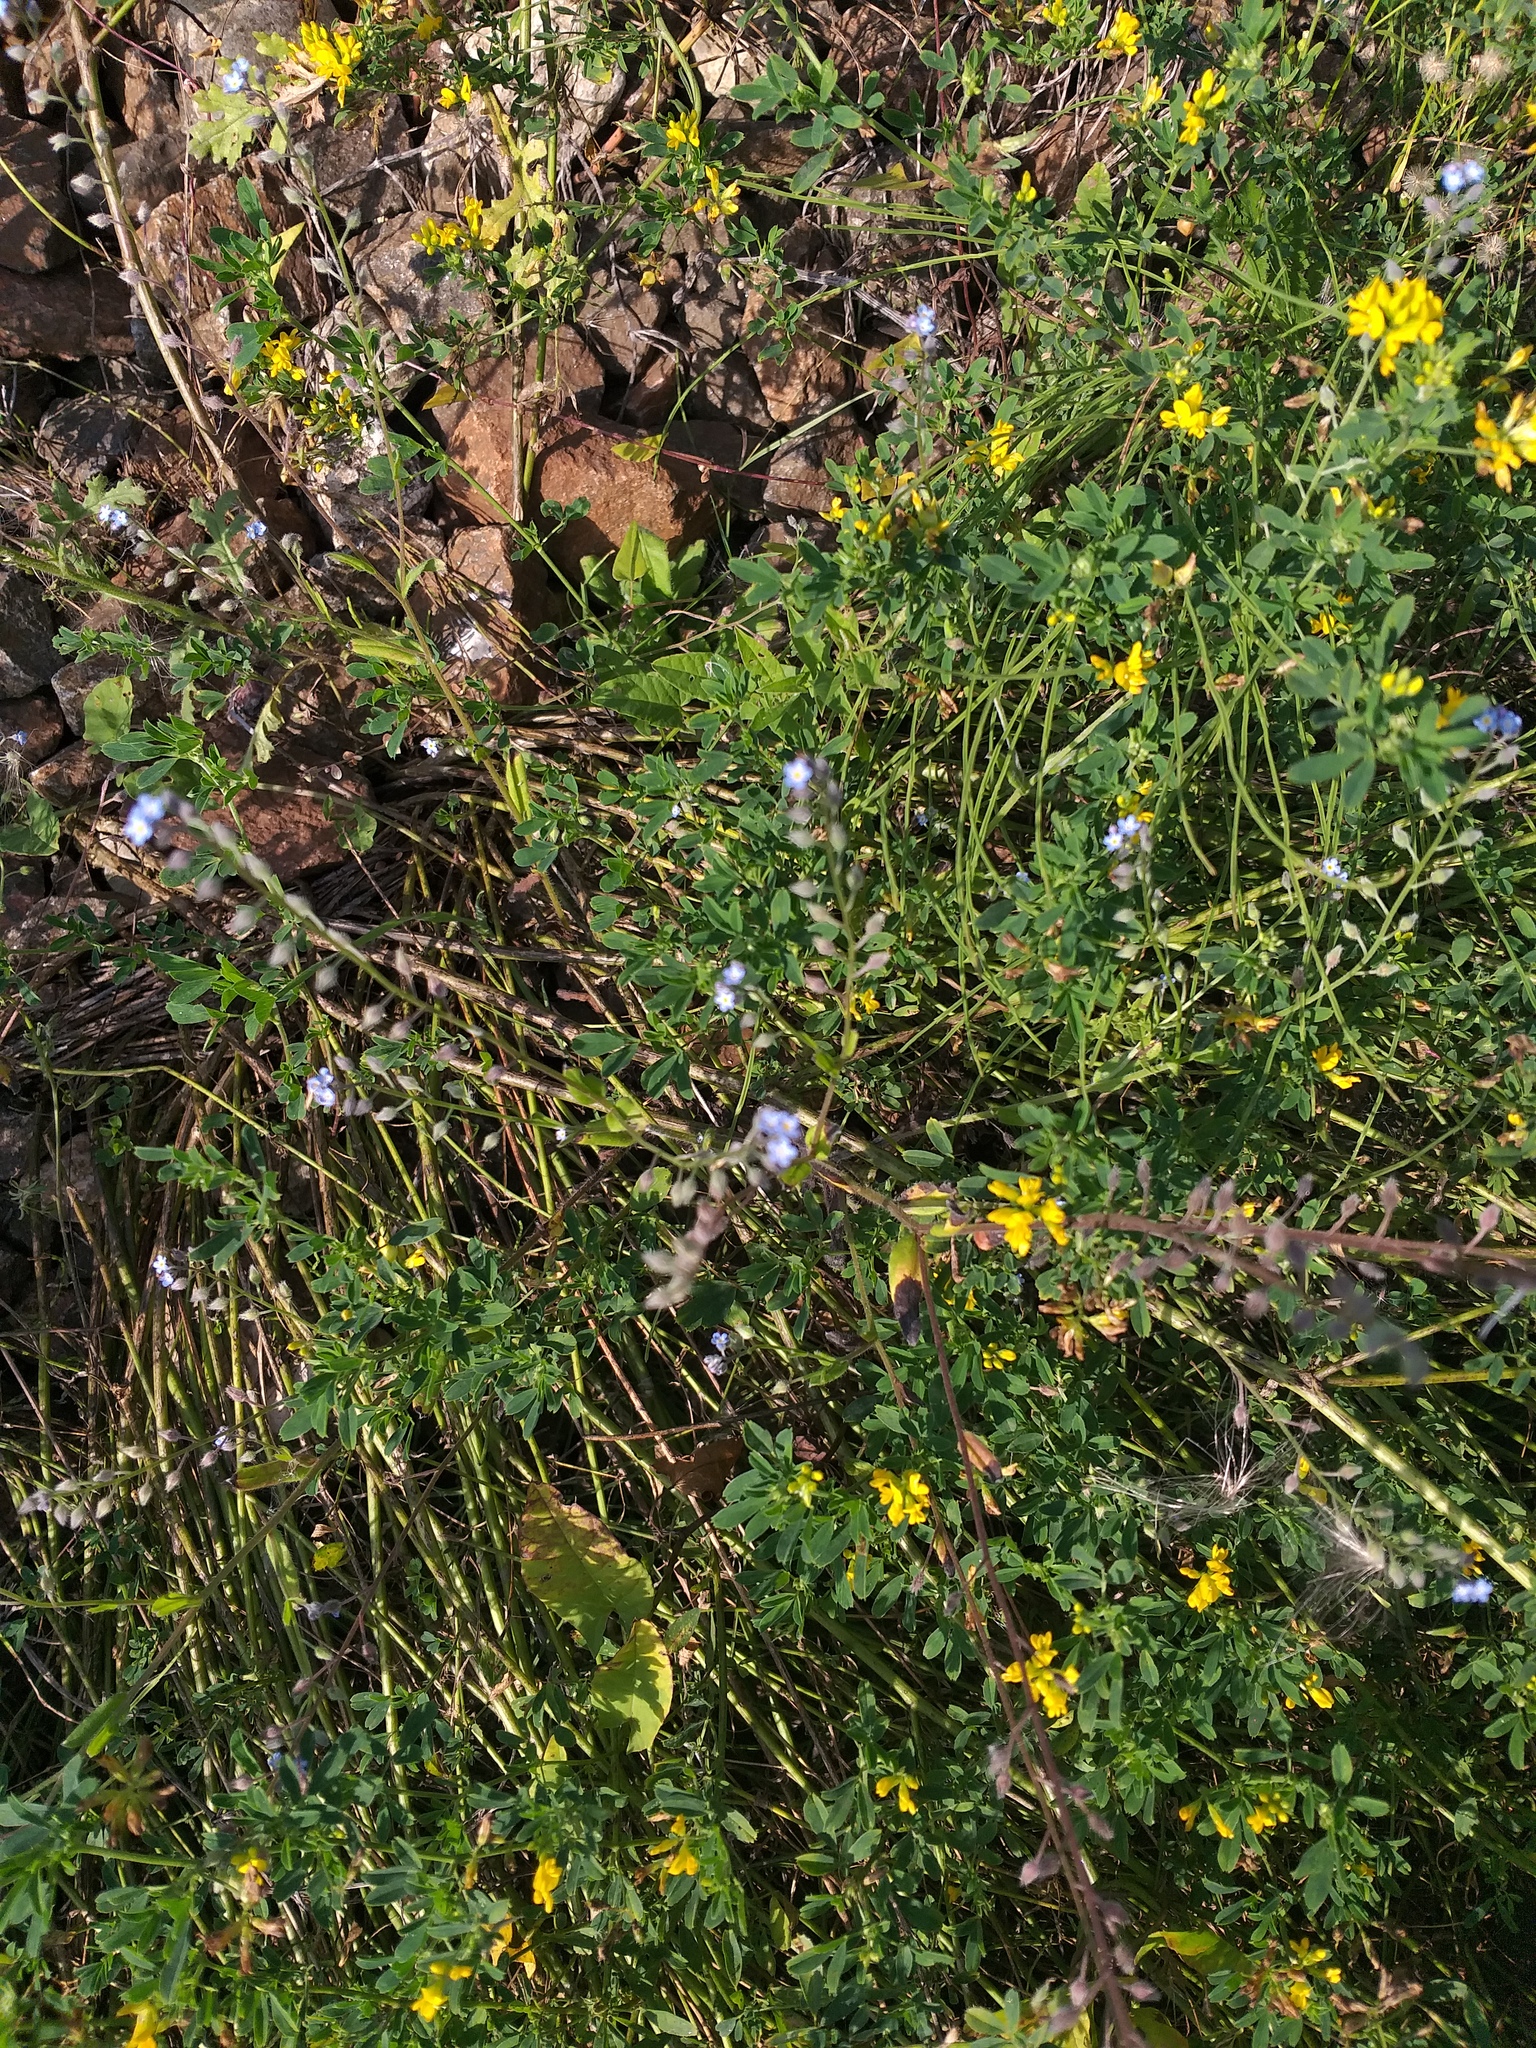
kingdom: Plantae
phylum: Tracheophyta
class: Magnoliopsida
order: Boraginales
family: Boraginaceae
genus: Myosotis
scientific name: Myosotis arvensis
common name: Field forget-me-not
